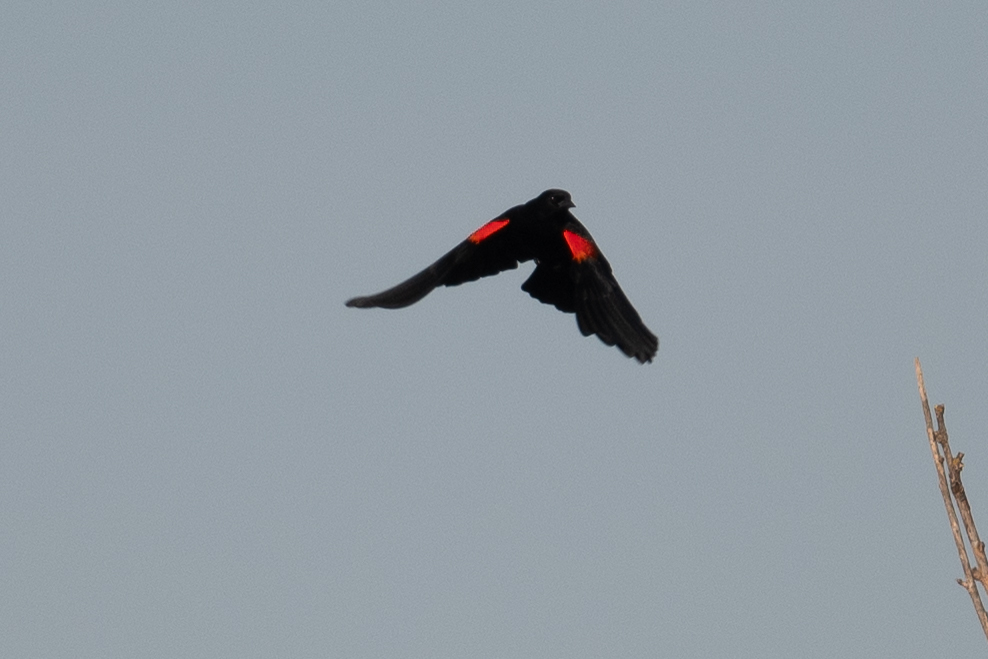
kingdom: Animalia
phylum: Chordata
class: Aves
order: Passeriformes
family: Icteridae
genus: Agelaius
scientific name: Agelaius phoeniceus
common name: Red-winged blackbird
